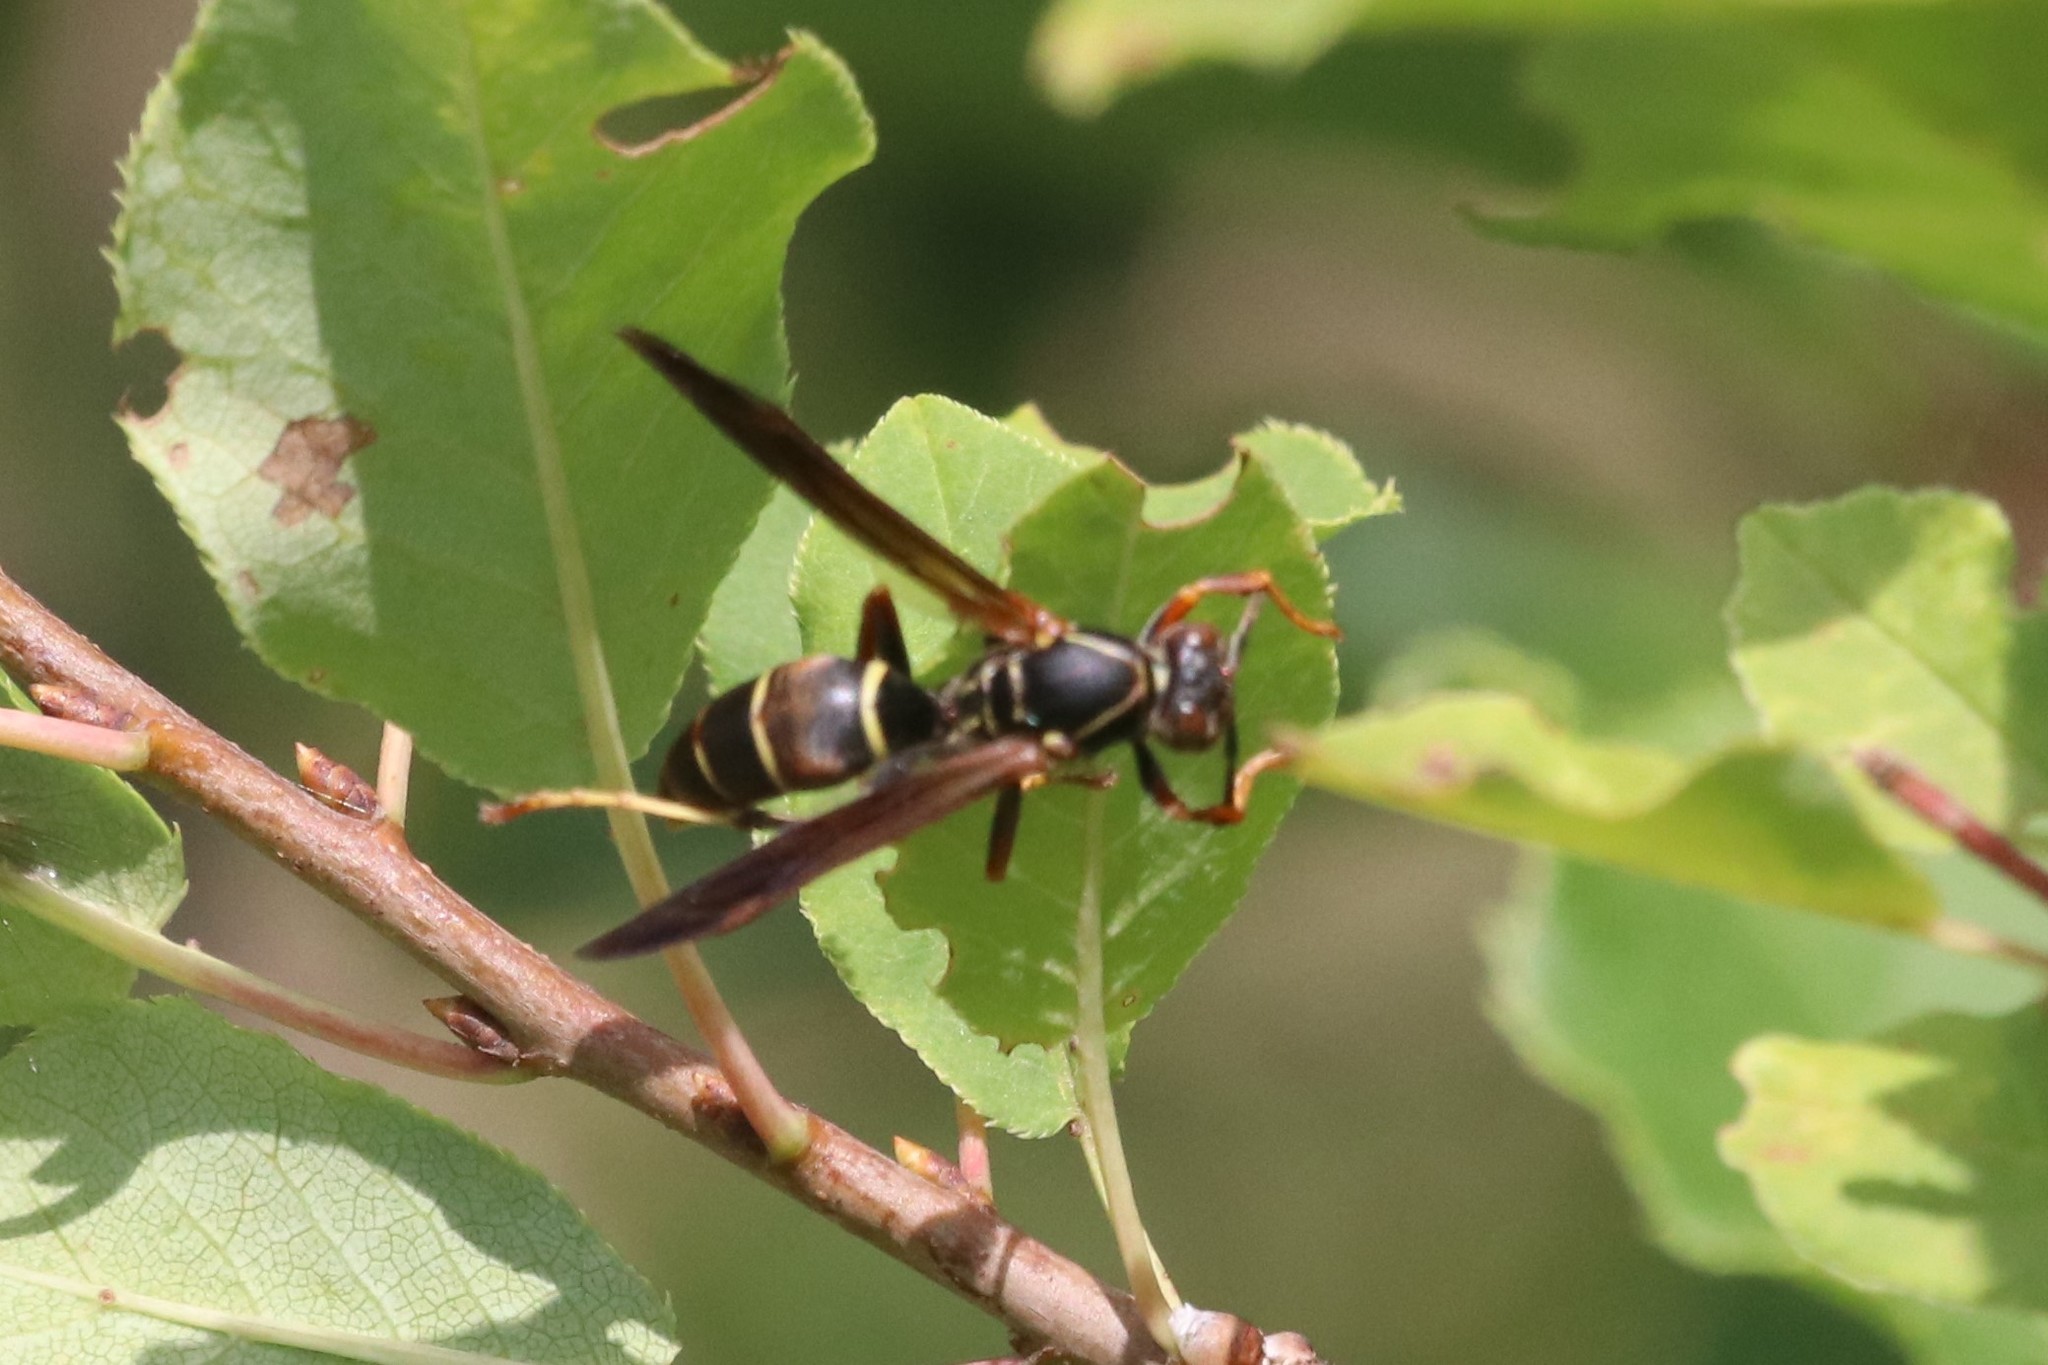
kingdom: Animalia
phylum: Arthropoda
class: Insecta
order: Hymenoptera
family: Eumenidae
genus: Polistes
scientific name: Polistes fuscatus
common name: Dark paper wasp
